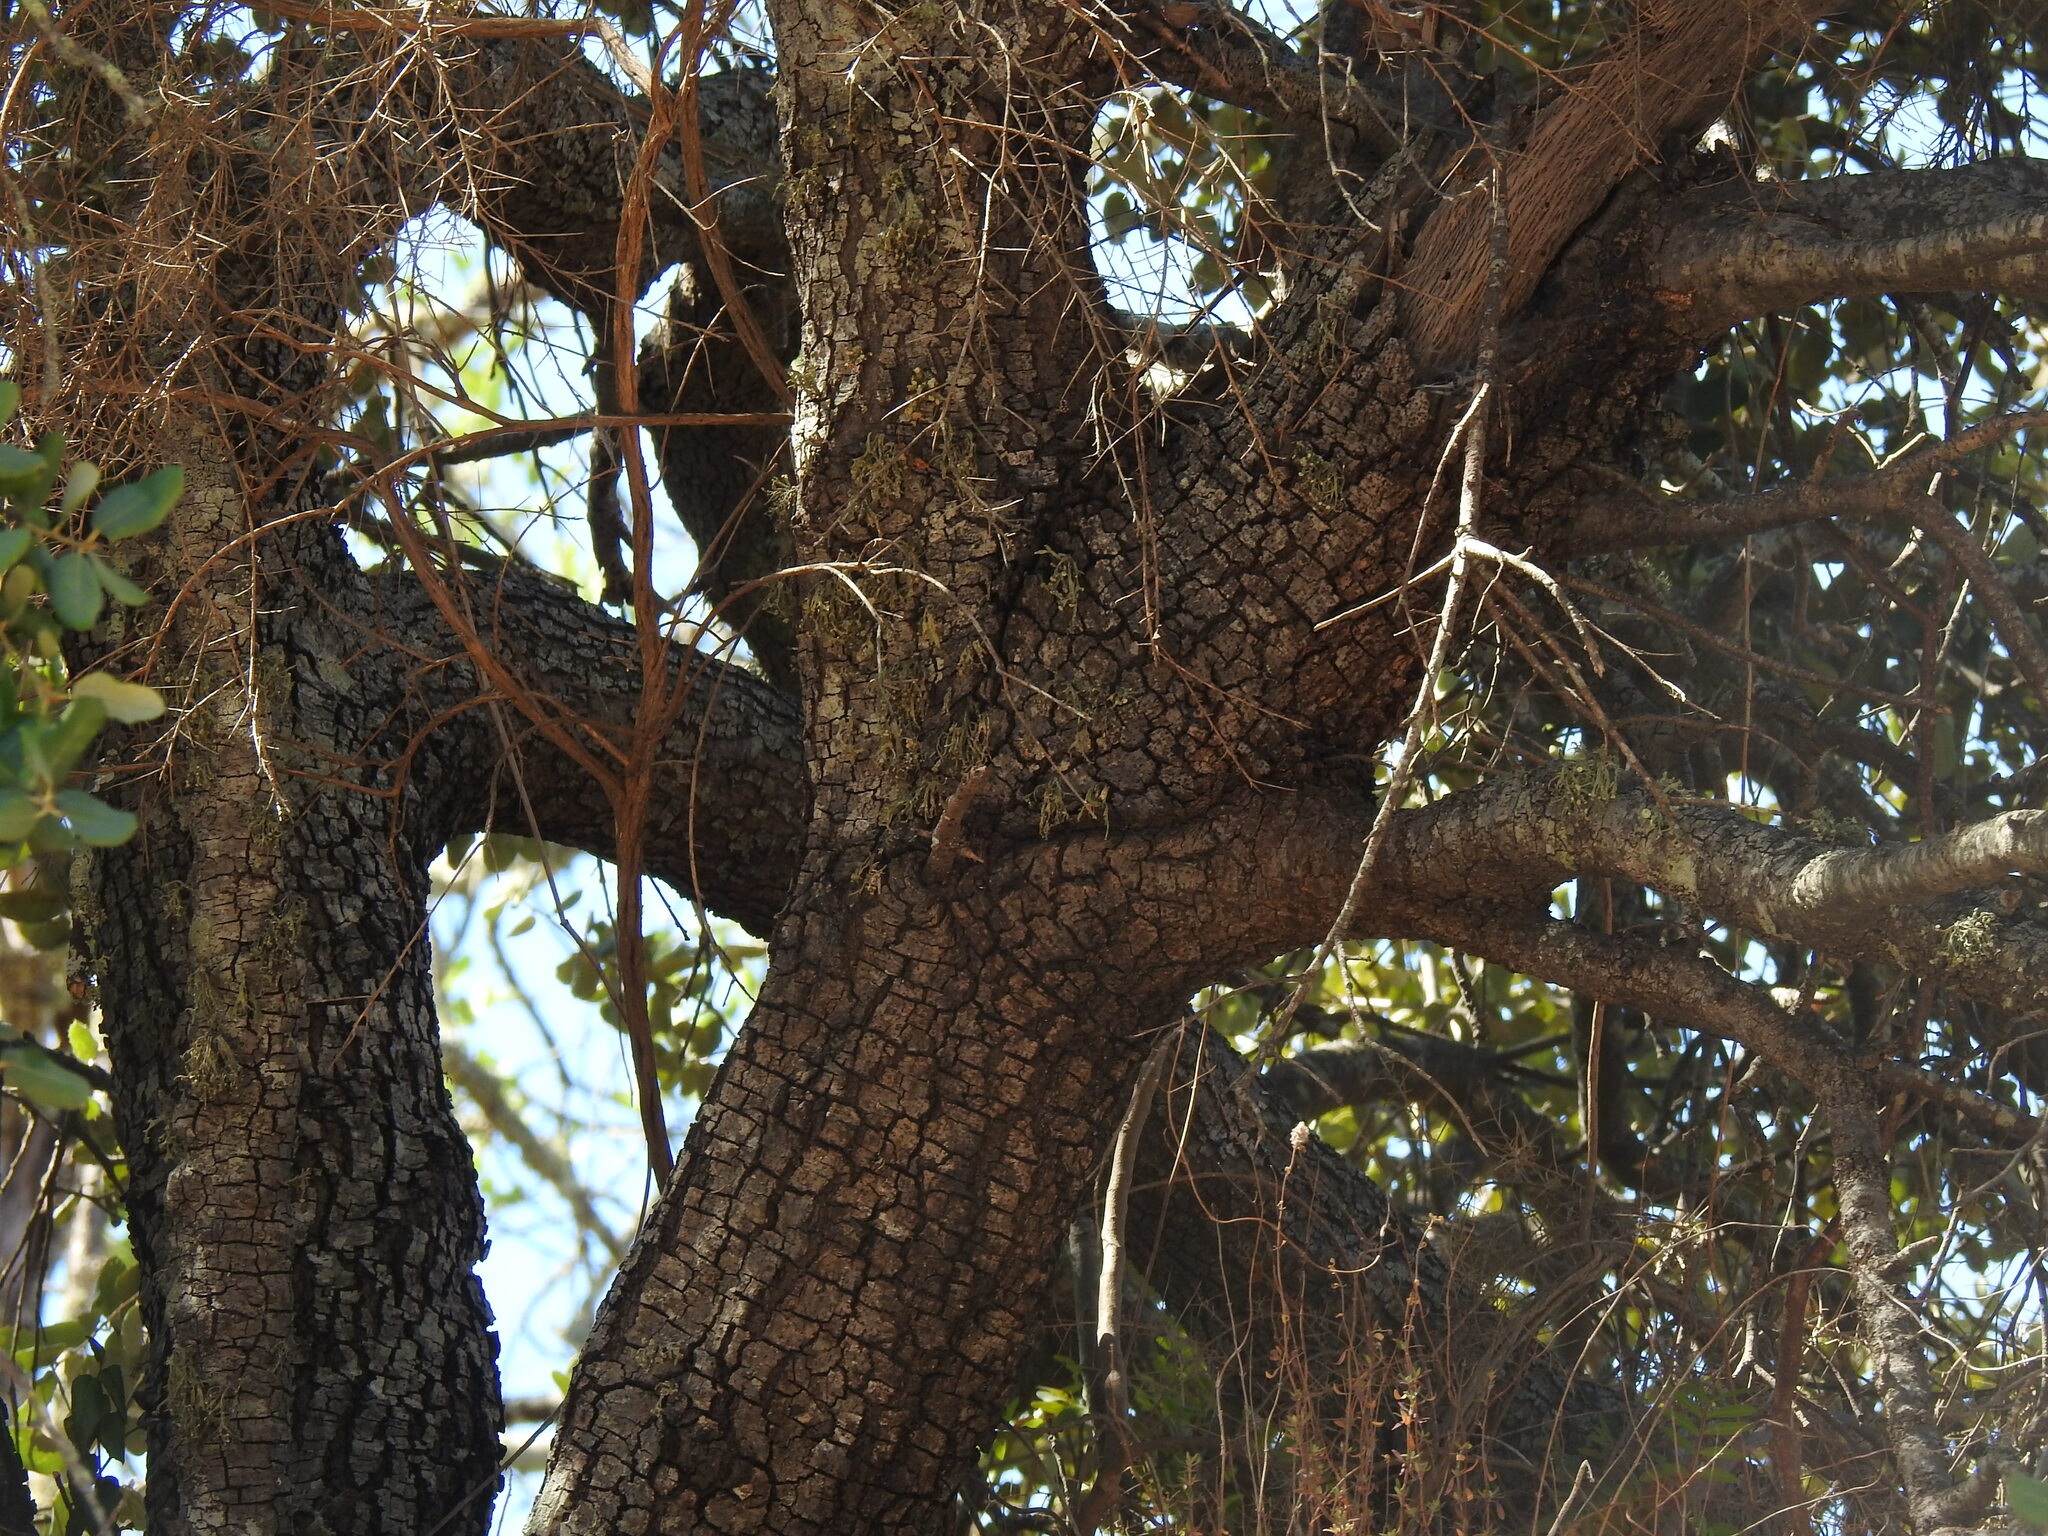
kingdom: Plantae
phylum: Tracheophyta
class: Magnoliopsida
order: Fagales
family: Fagaceae
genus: Quercus
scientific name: Quercus rotundifolia
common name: Holm oak
